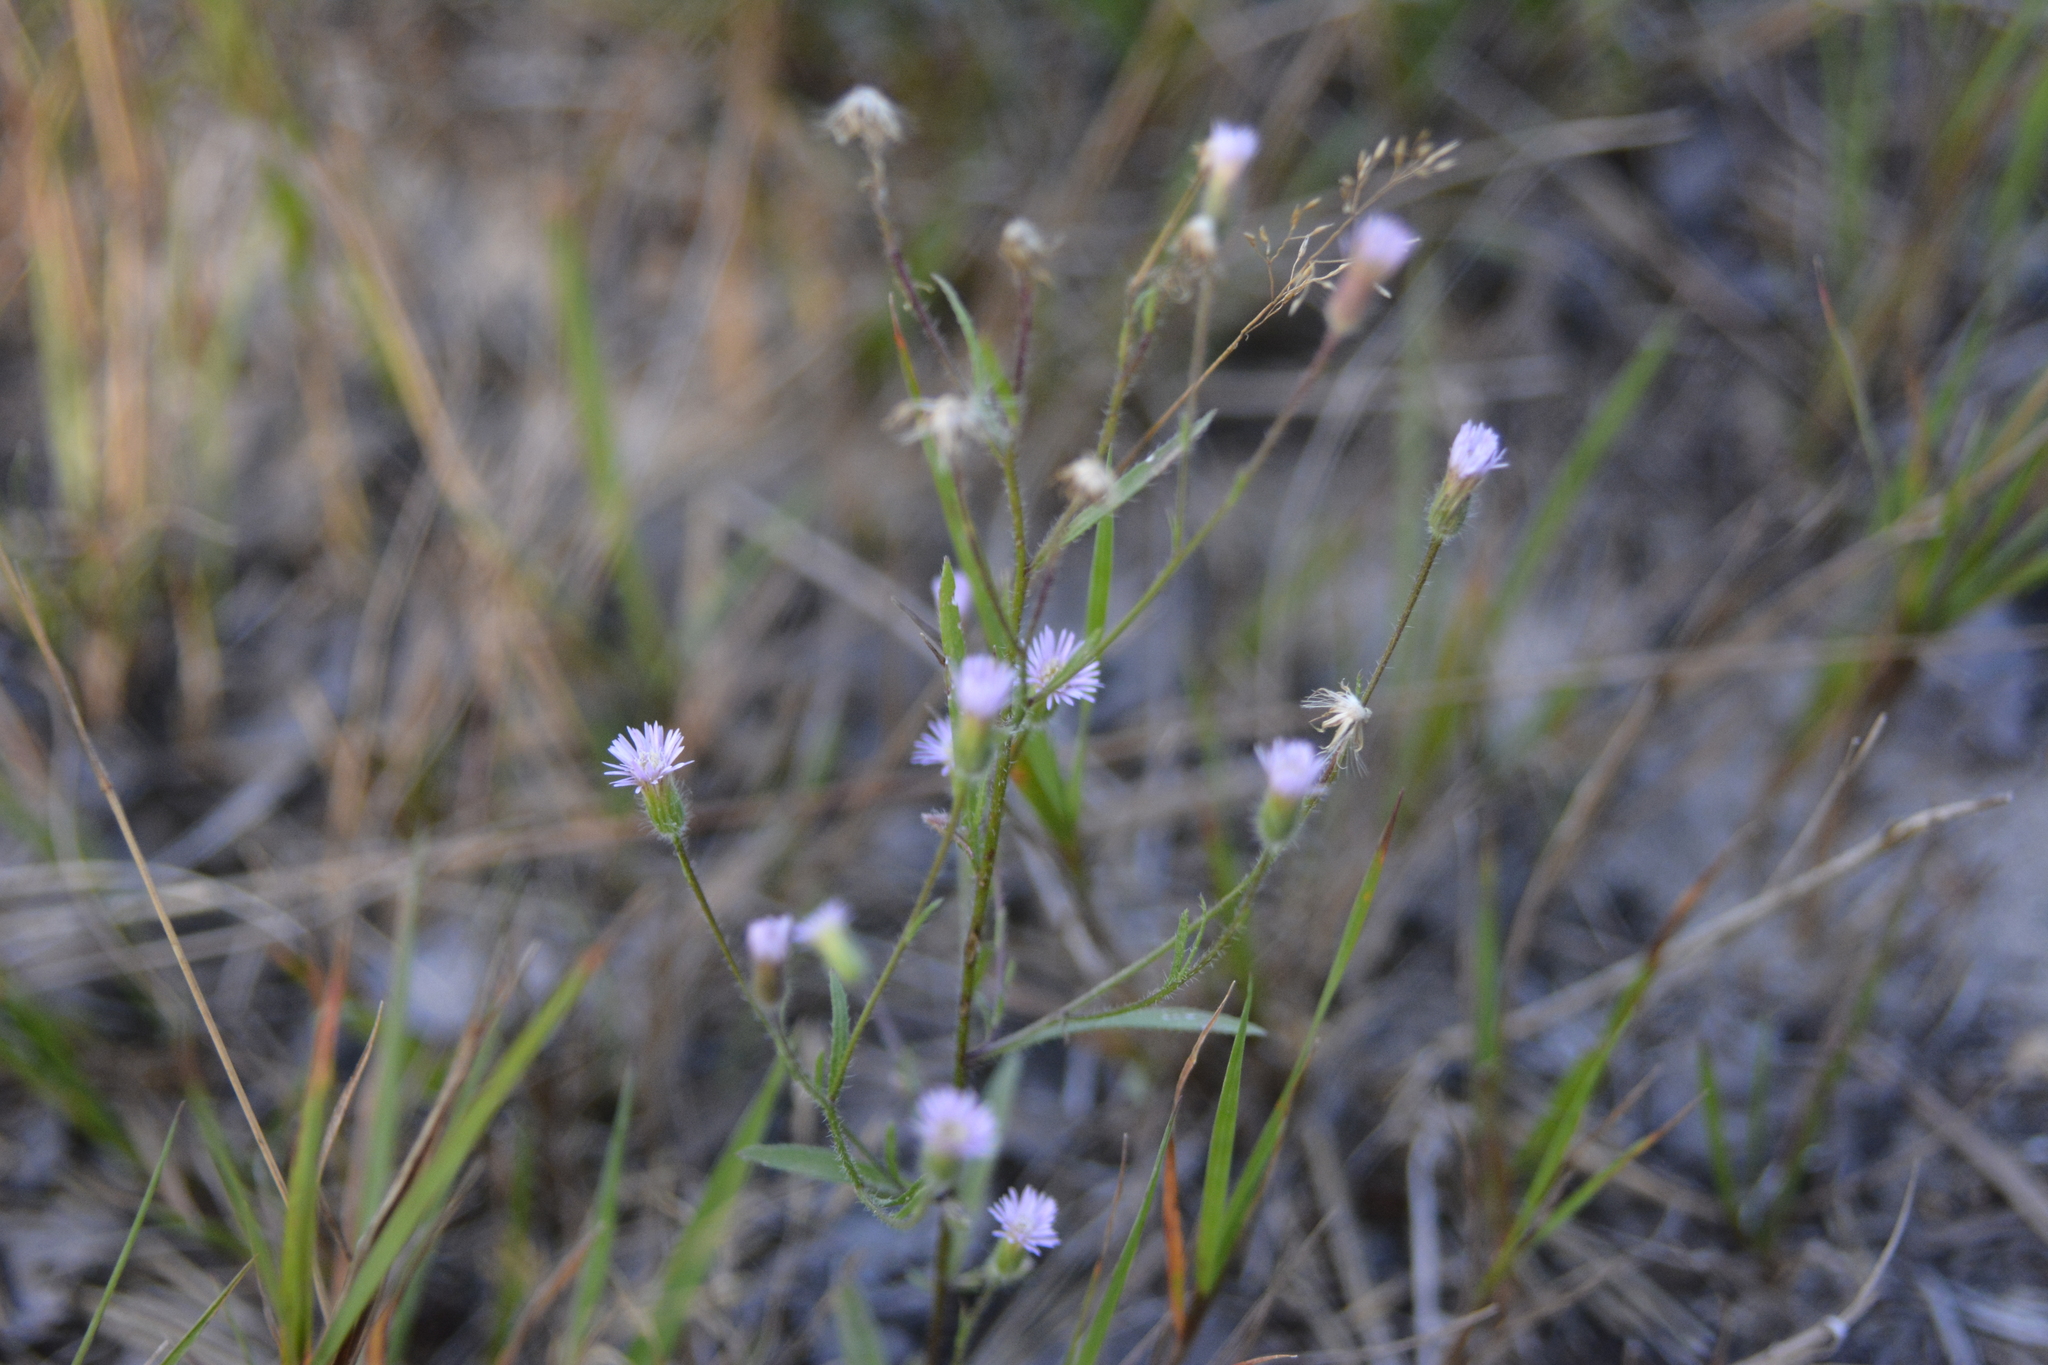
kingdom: Plantae
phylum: Tracheophyta
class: Magnoliopsida
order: Asterales
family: Asteraceae
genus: Erigeron
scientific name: Erigeron huelsenii
